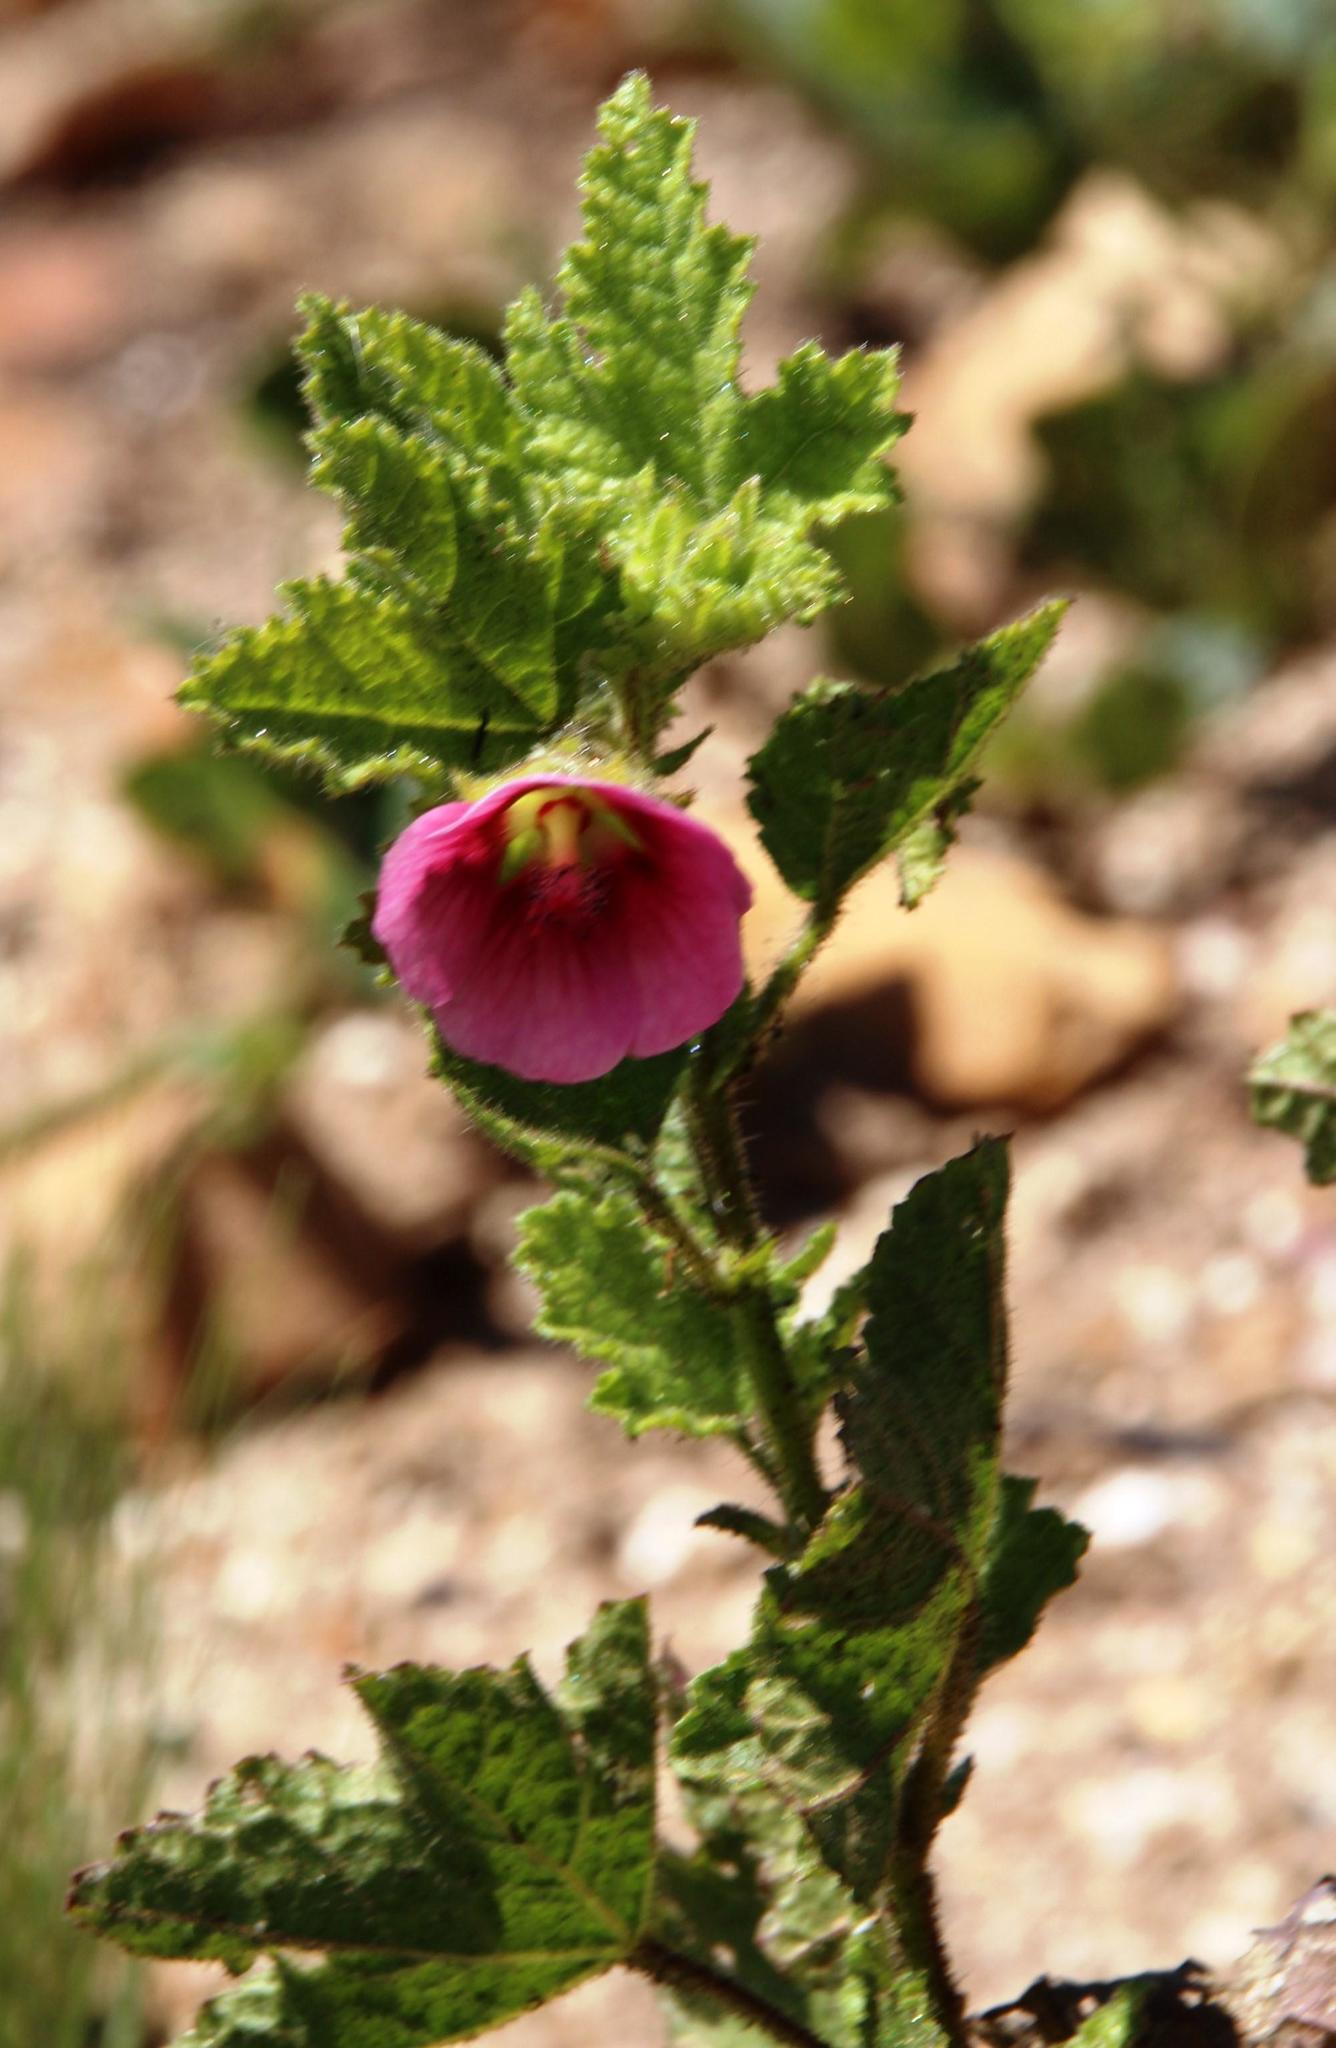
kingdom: Plantae
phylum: Tracheophyta
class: Magnoliopsida
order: Malvales
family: Malvaceae
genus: Anisodontea
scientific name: Anisodontea scabrosa
